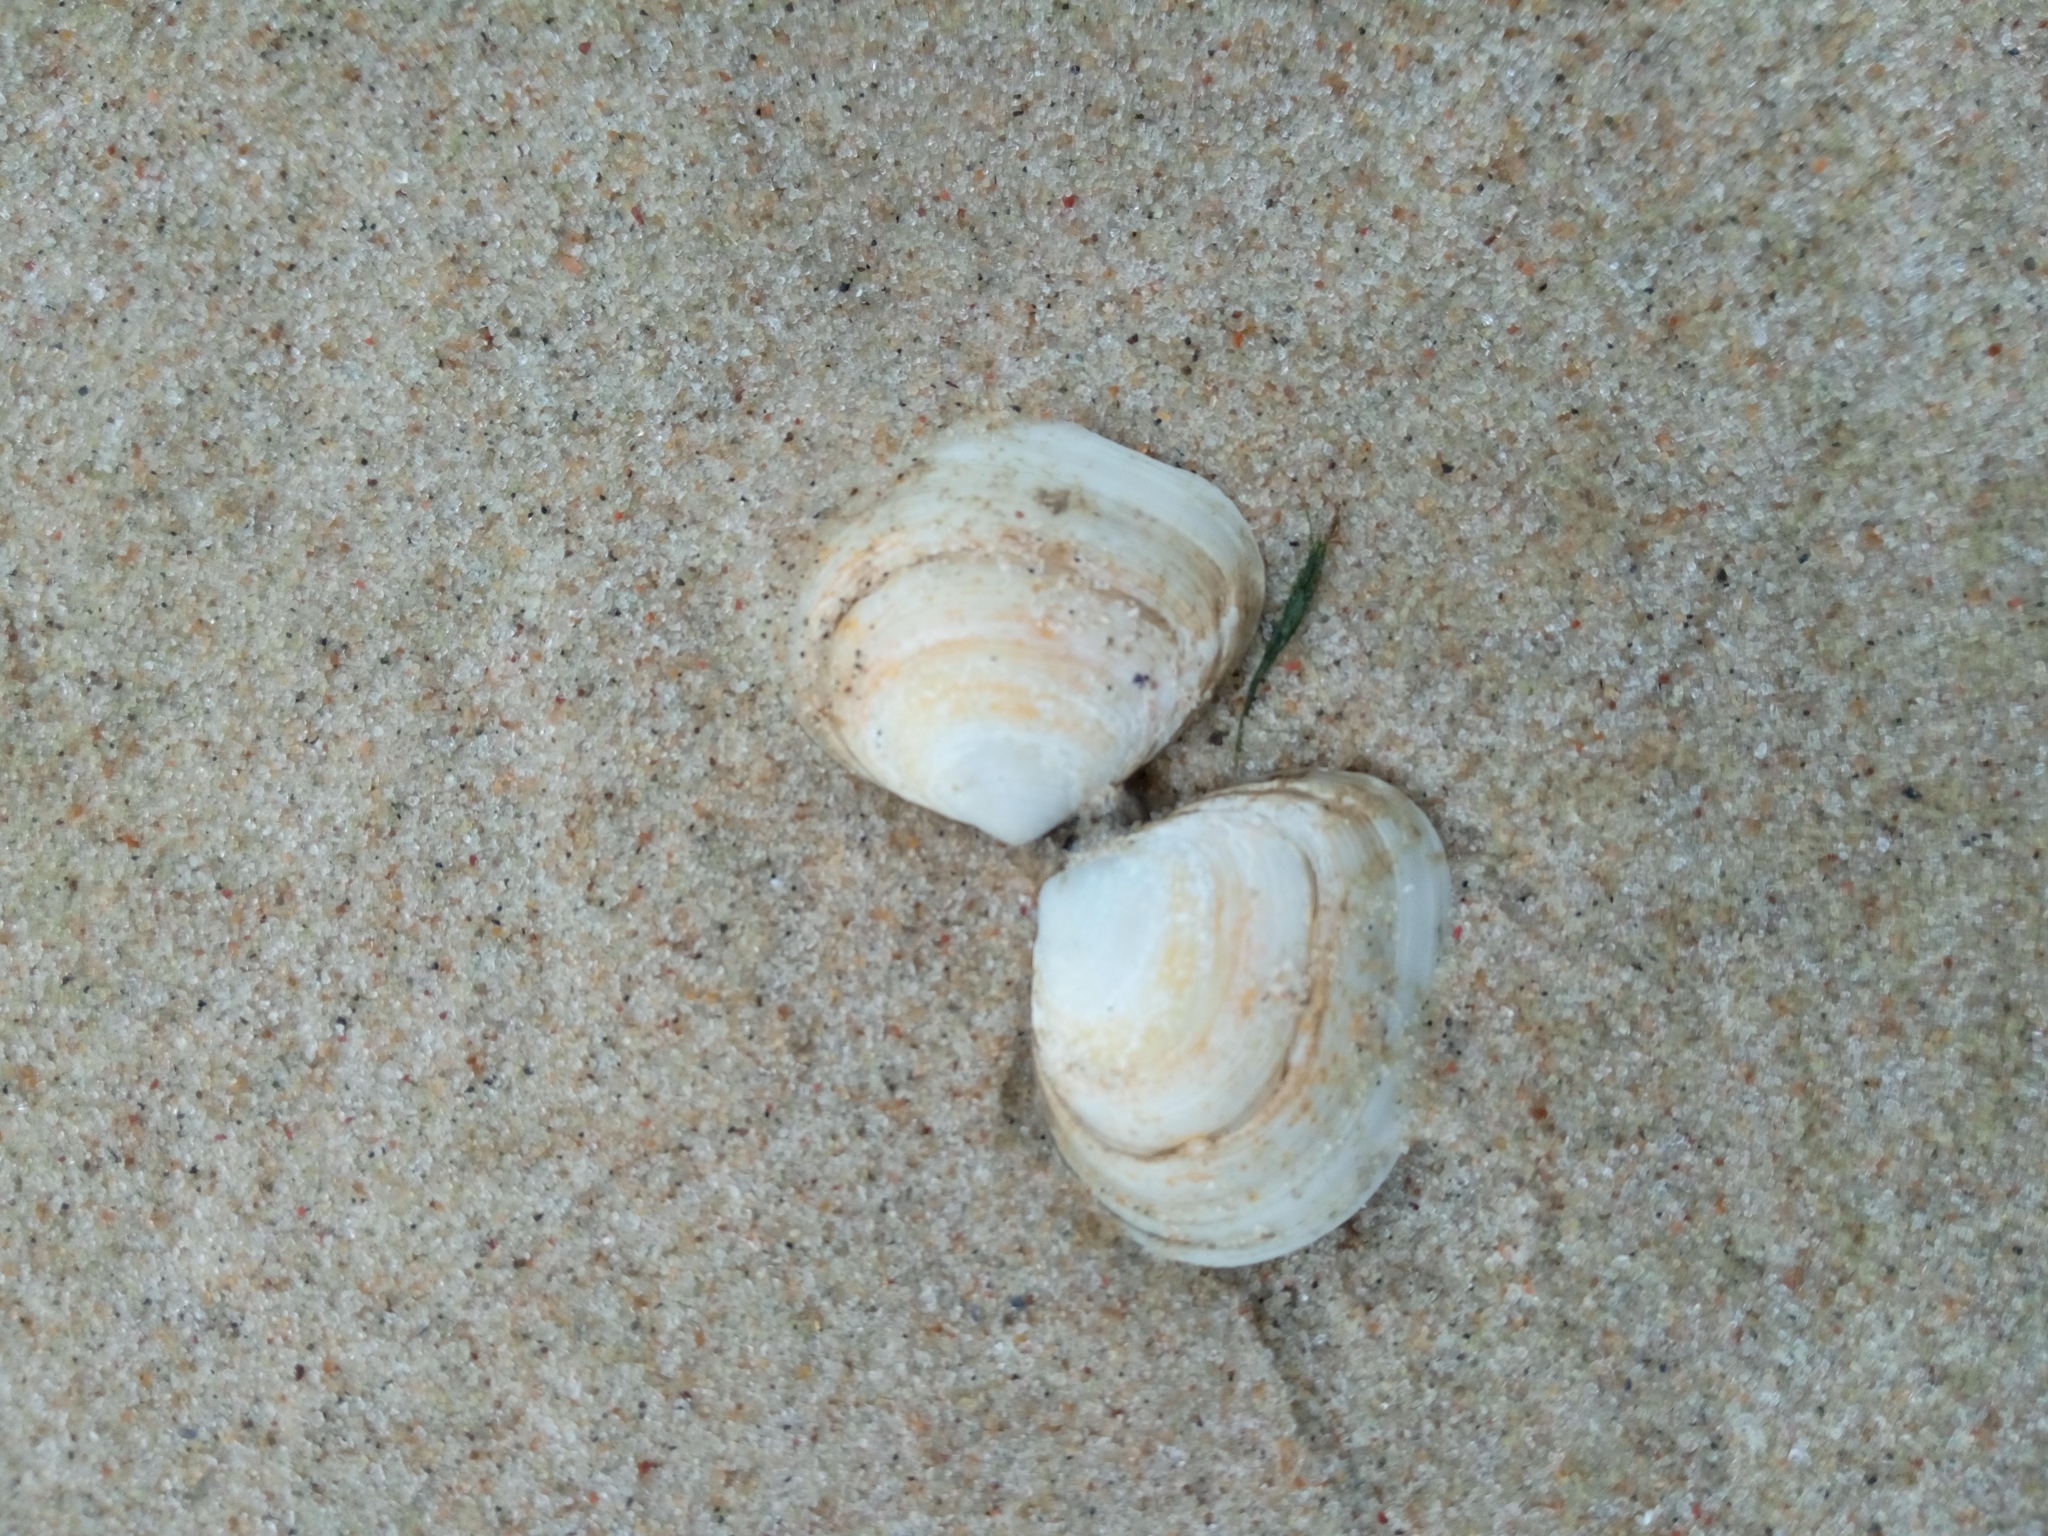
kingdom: Animalia
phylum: Mollusca
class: Bivalvia
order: Cardiida
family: Tellinidae
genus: Macoma
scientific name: Macoma balthica
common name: Baltic tellin
